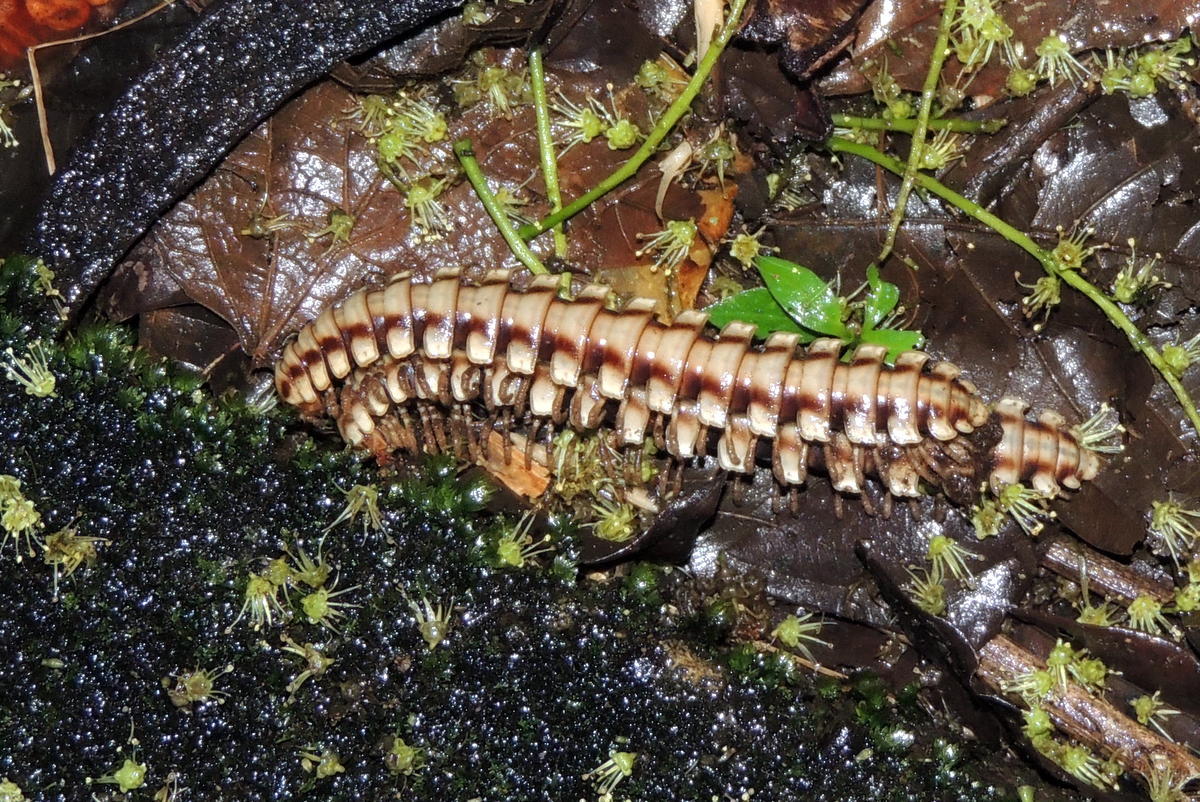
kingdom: Animalia
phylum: Arthropoda
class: Diplopoda
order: Polydesmida
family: Platyrhacidae
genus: Nyssodesmus
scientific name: Nyssodesmus python
